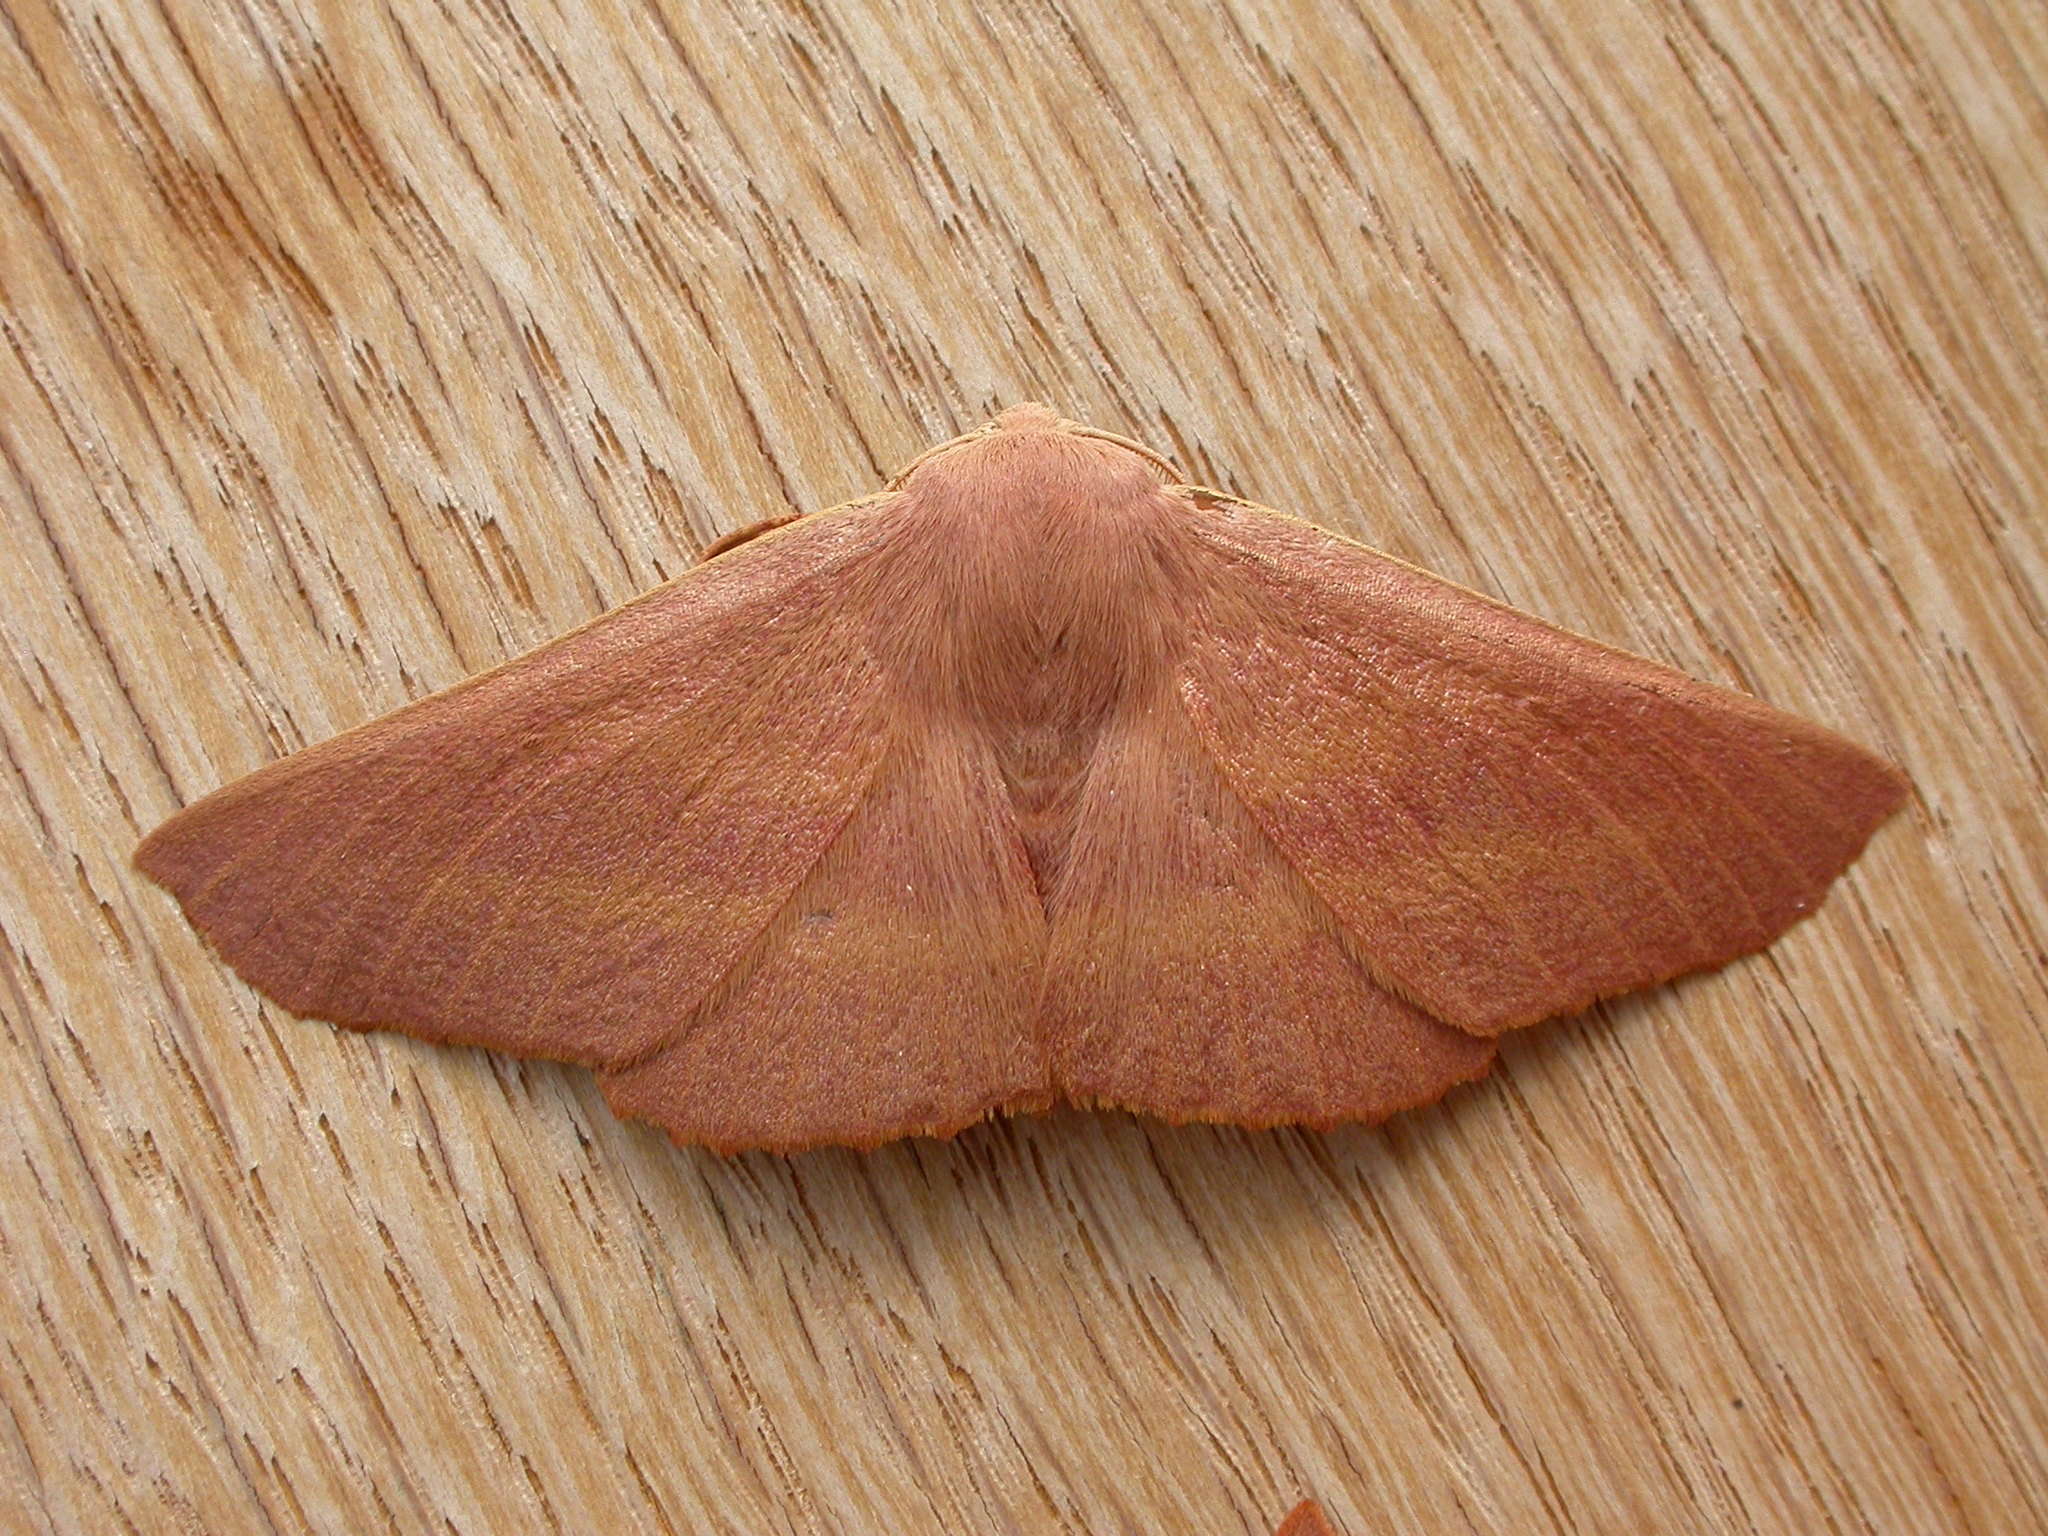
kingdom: Animalia
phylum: Arthropoda
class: Insecta
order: Lepidoptera
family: Geometridae
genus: Monoctenia
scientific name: Monoctenia smerintharia
